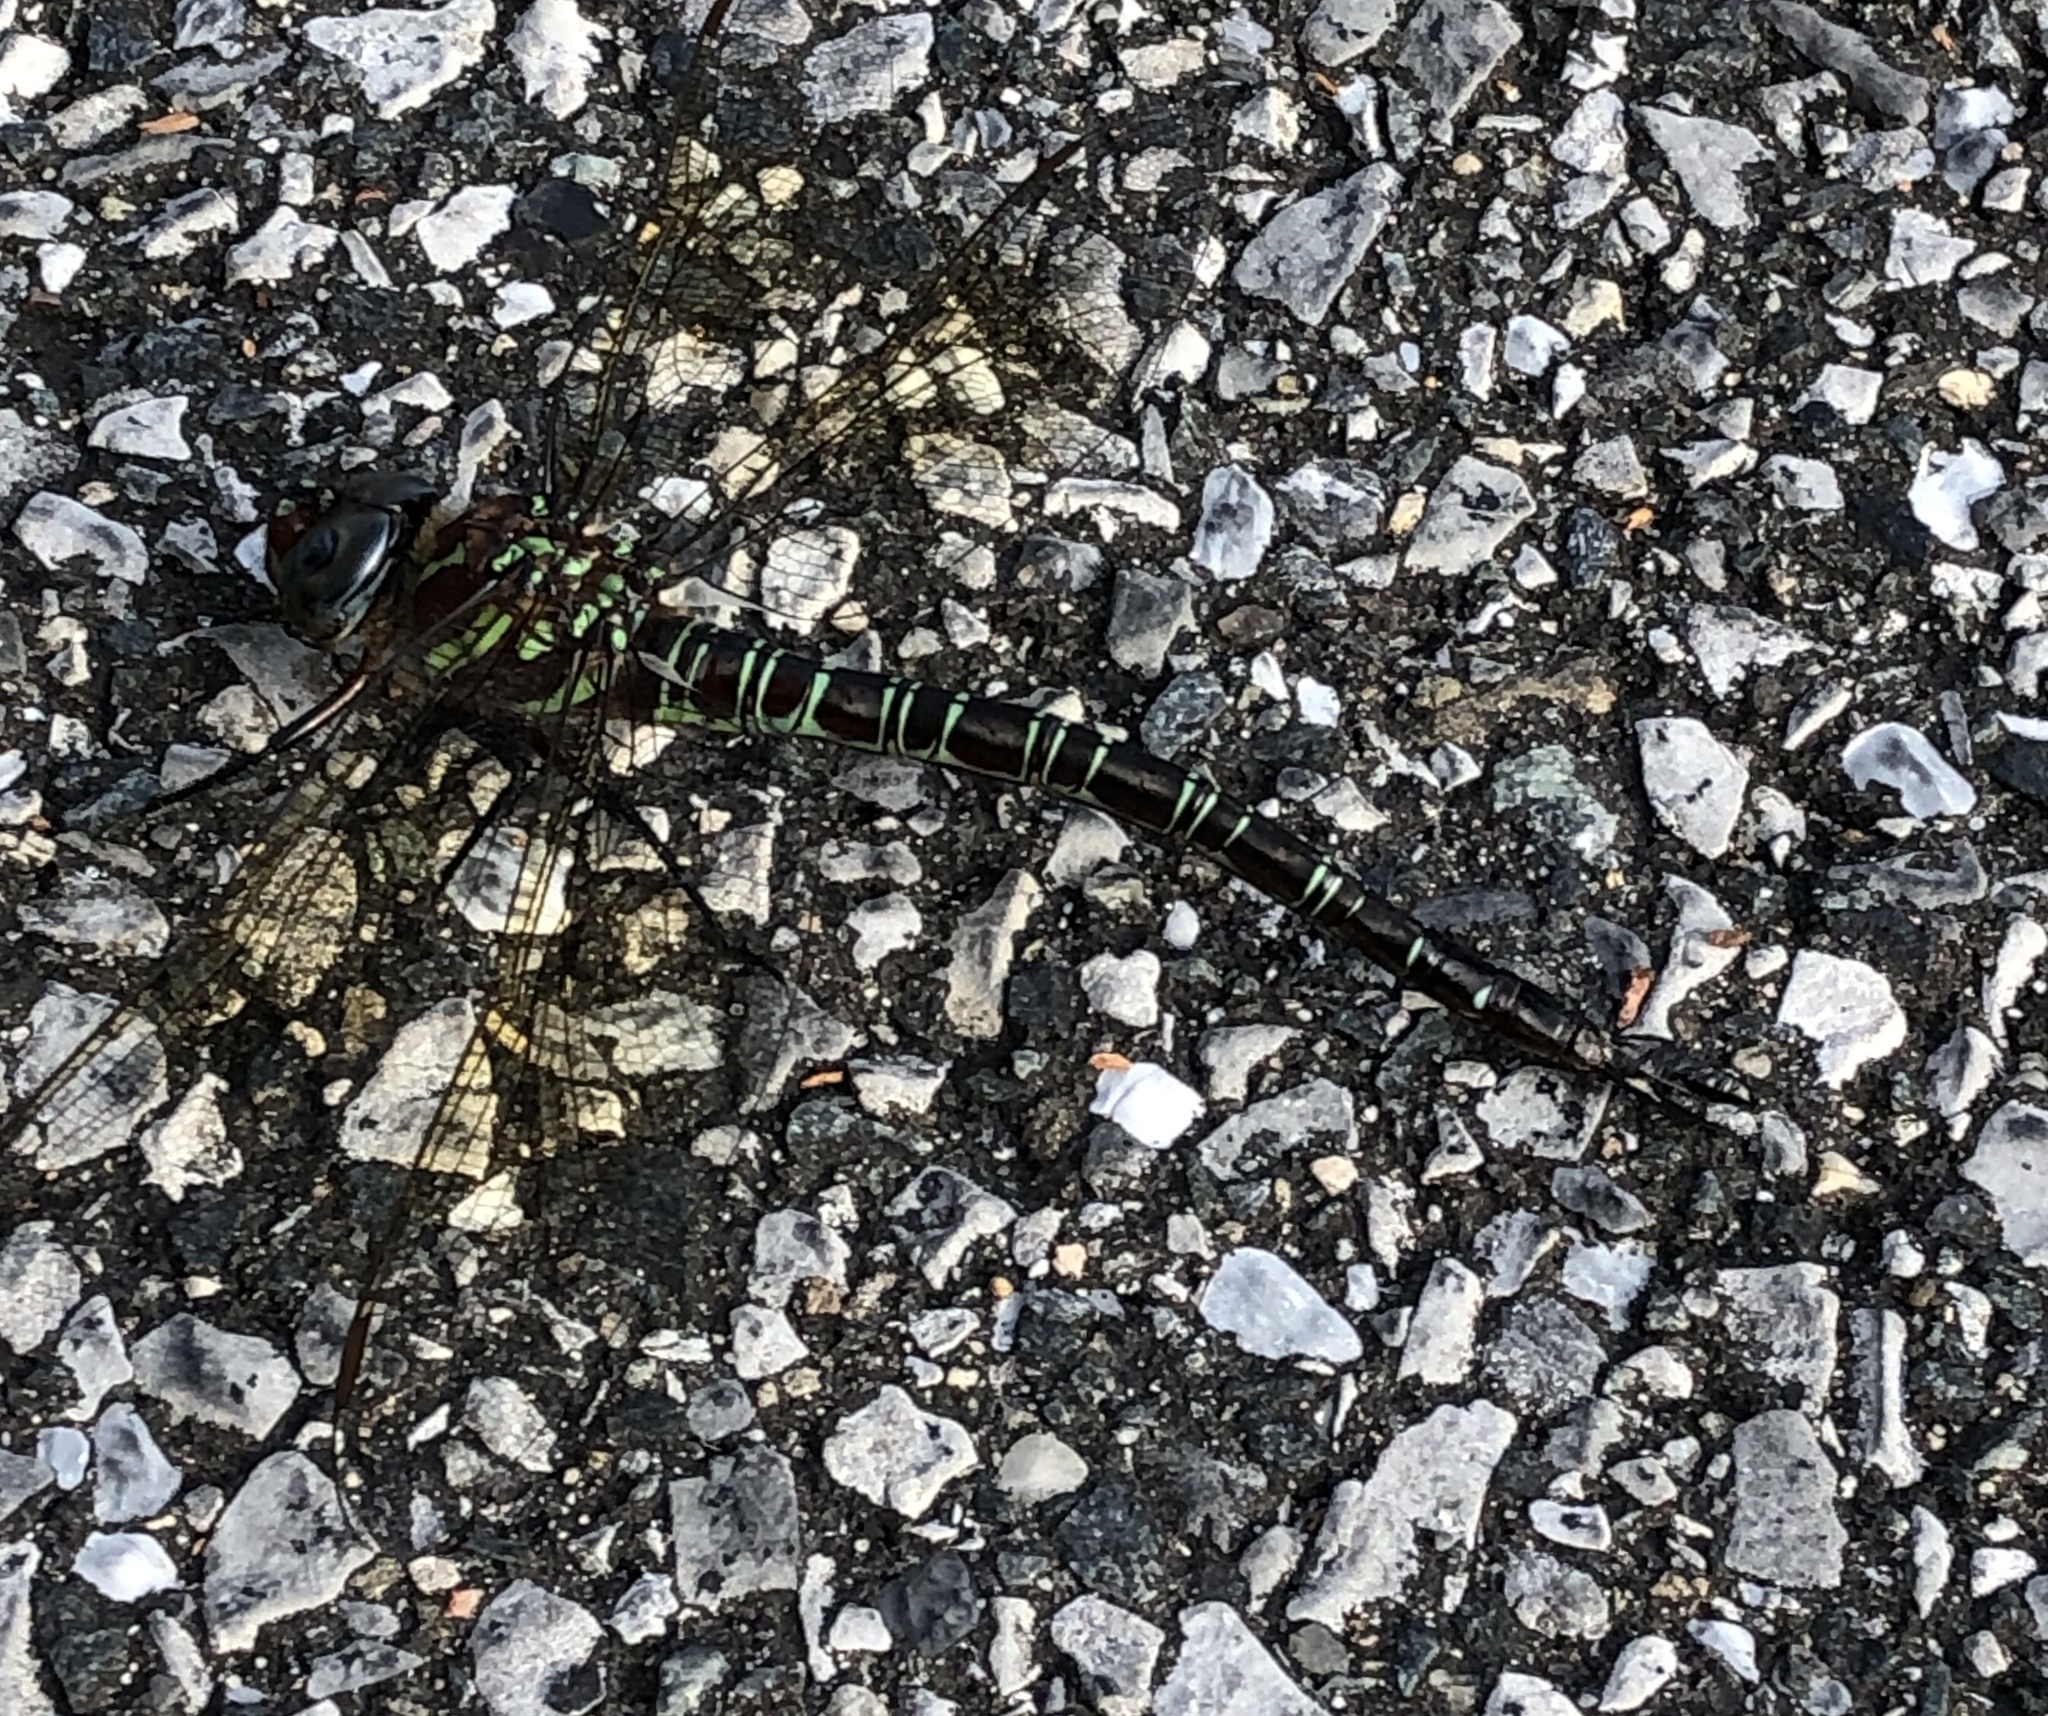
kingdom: Animalia
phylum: Arthropoda
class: Insecta
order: Odonata
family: Aeshnidae
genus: Epiaeschna
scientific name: Epiaeschna heros
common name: Swamp darner
